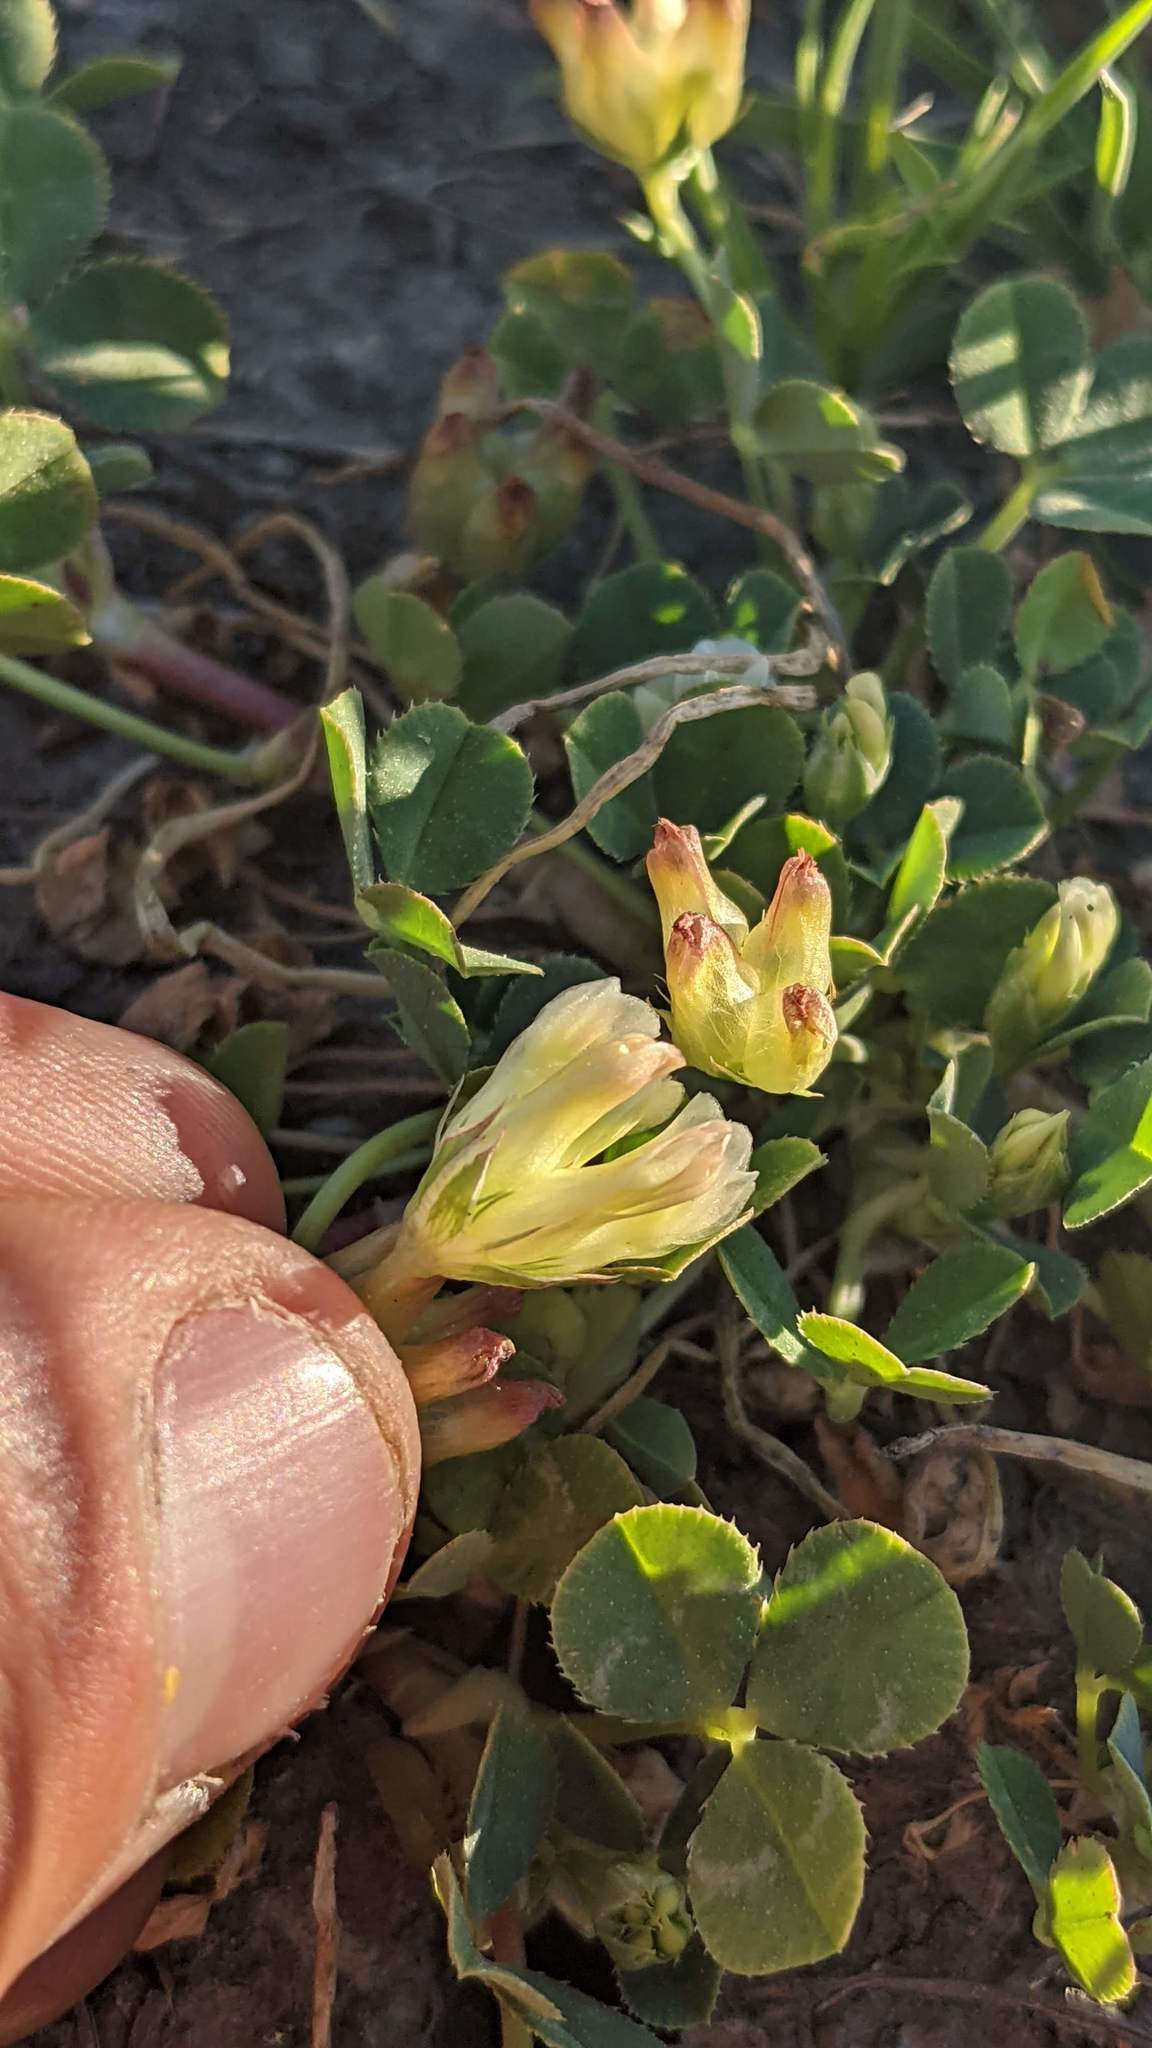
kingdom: Plantae
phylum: Tracheophyta
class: Magnoliopsida
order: Fabales
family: Fabaceae
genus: Trifolium
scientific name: Trifolium fucatum
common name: Puff clover
